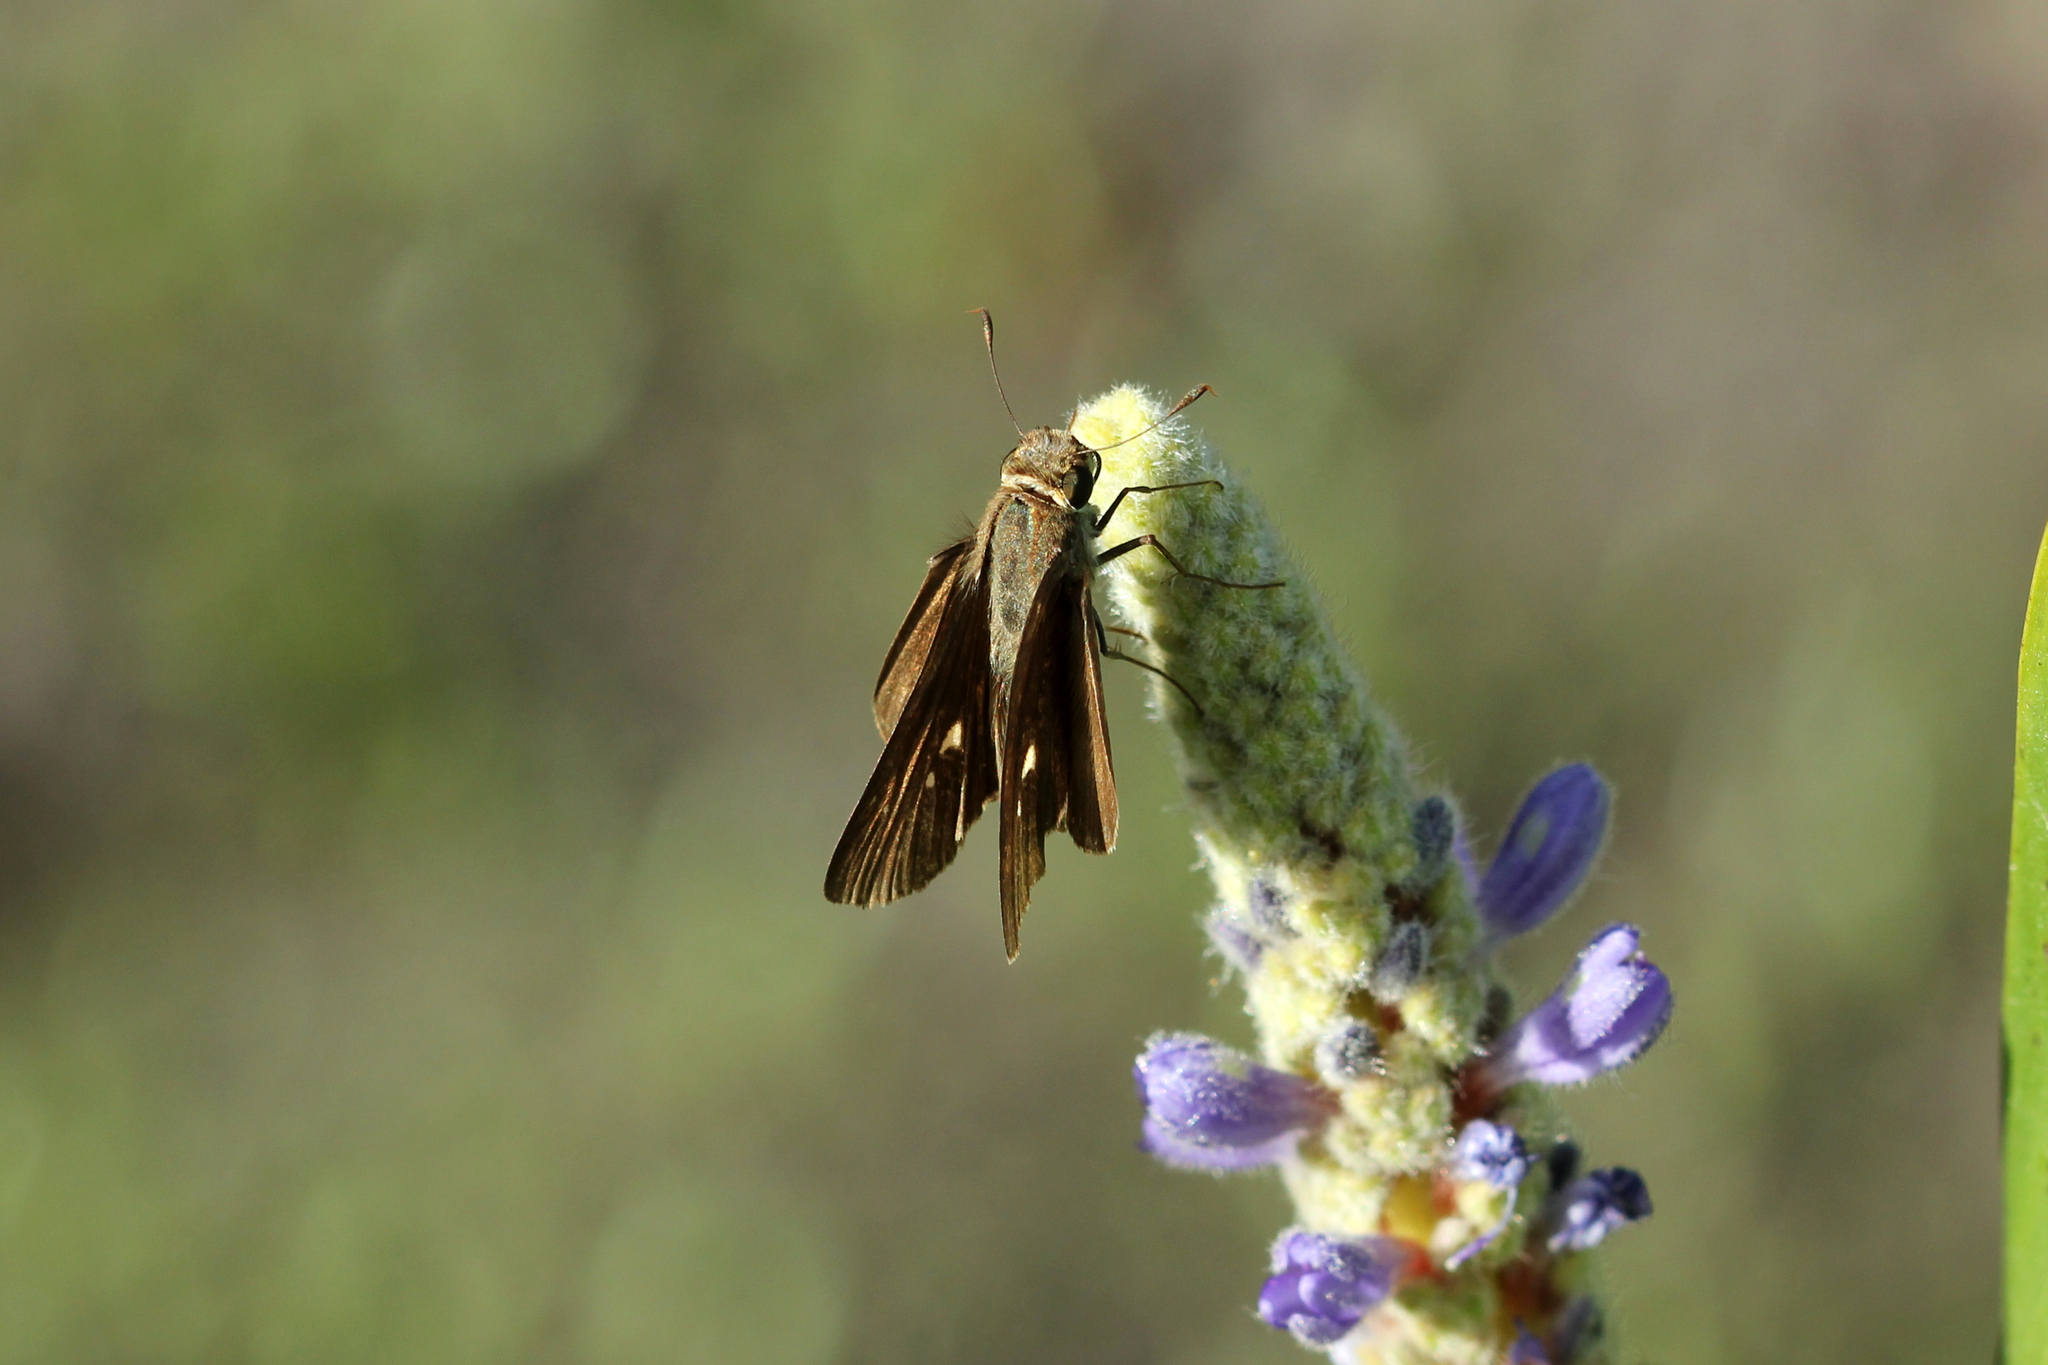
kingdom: Animalia
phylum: Arthropoda
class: Insecta
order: Lepidoptera
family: Hesperiidae
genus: Panoquina
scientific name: Panoquina ocola
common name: Ocola skipper
